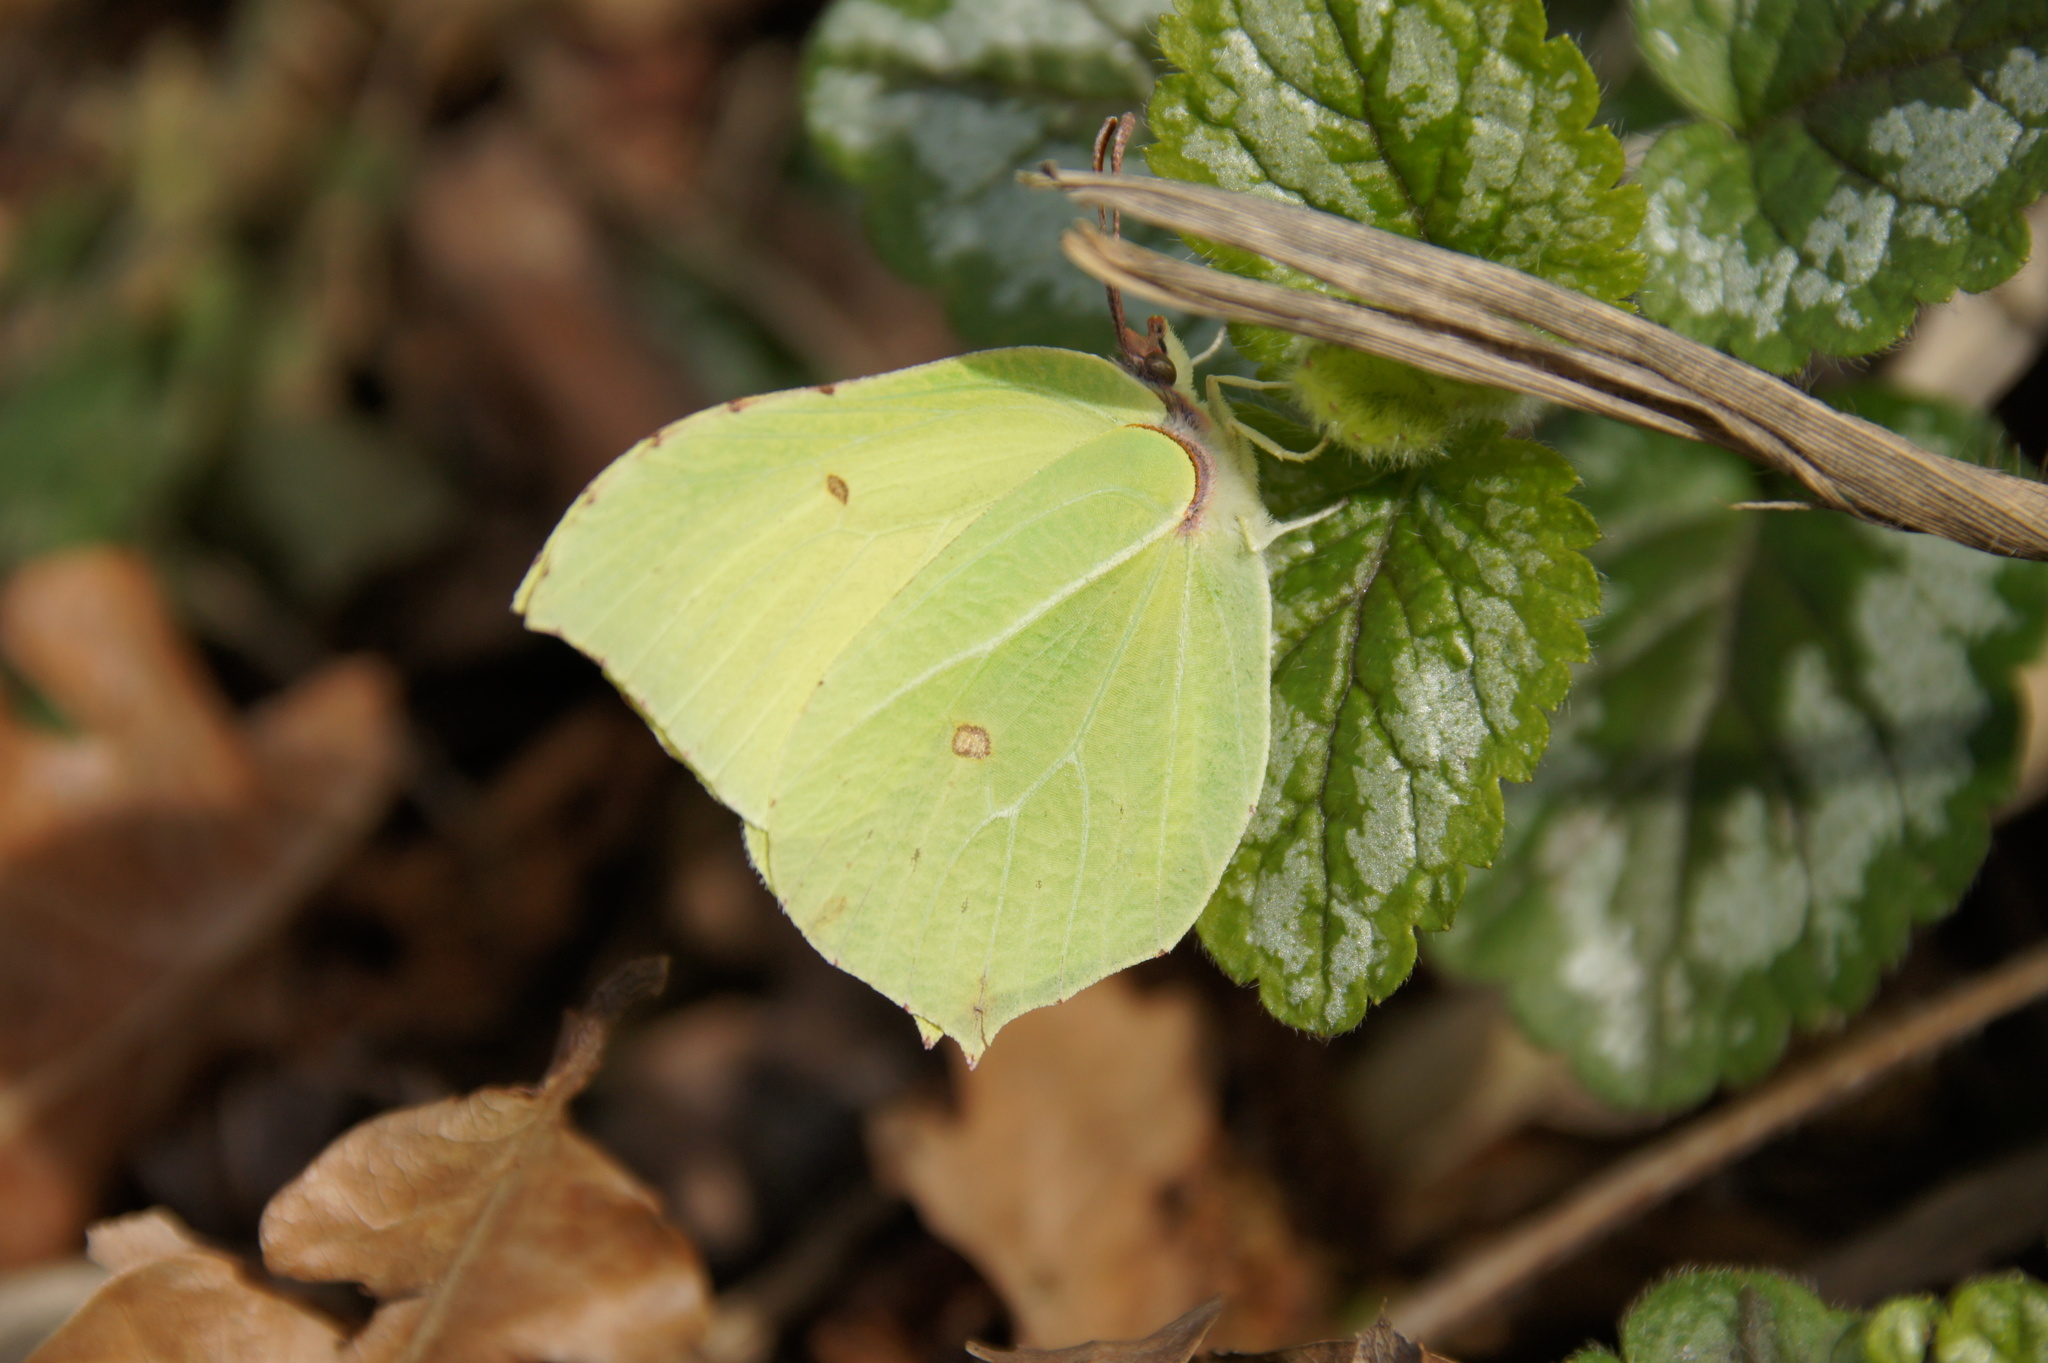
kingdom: Animalia
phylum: Arthropoda
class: Insecta
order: Lepidoptera
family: Pieridae
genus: Gonepteryx
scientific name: Gonepteryx rhamni
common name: Brimstone
